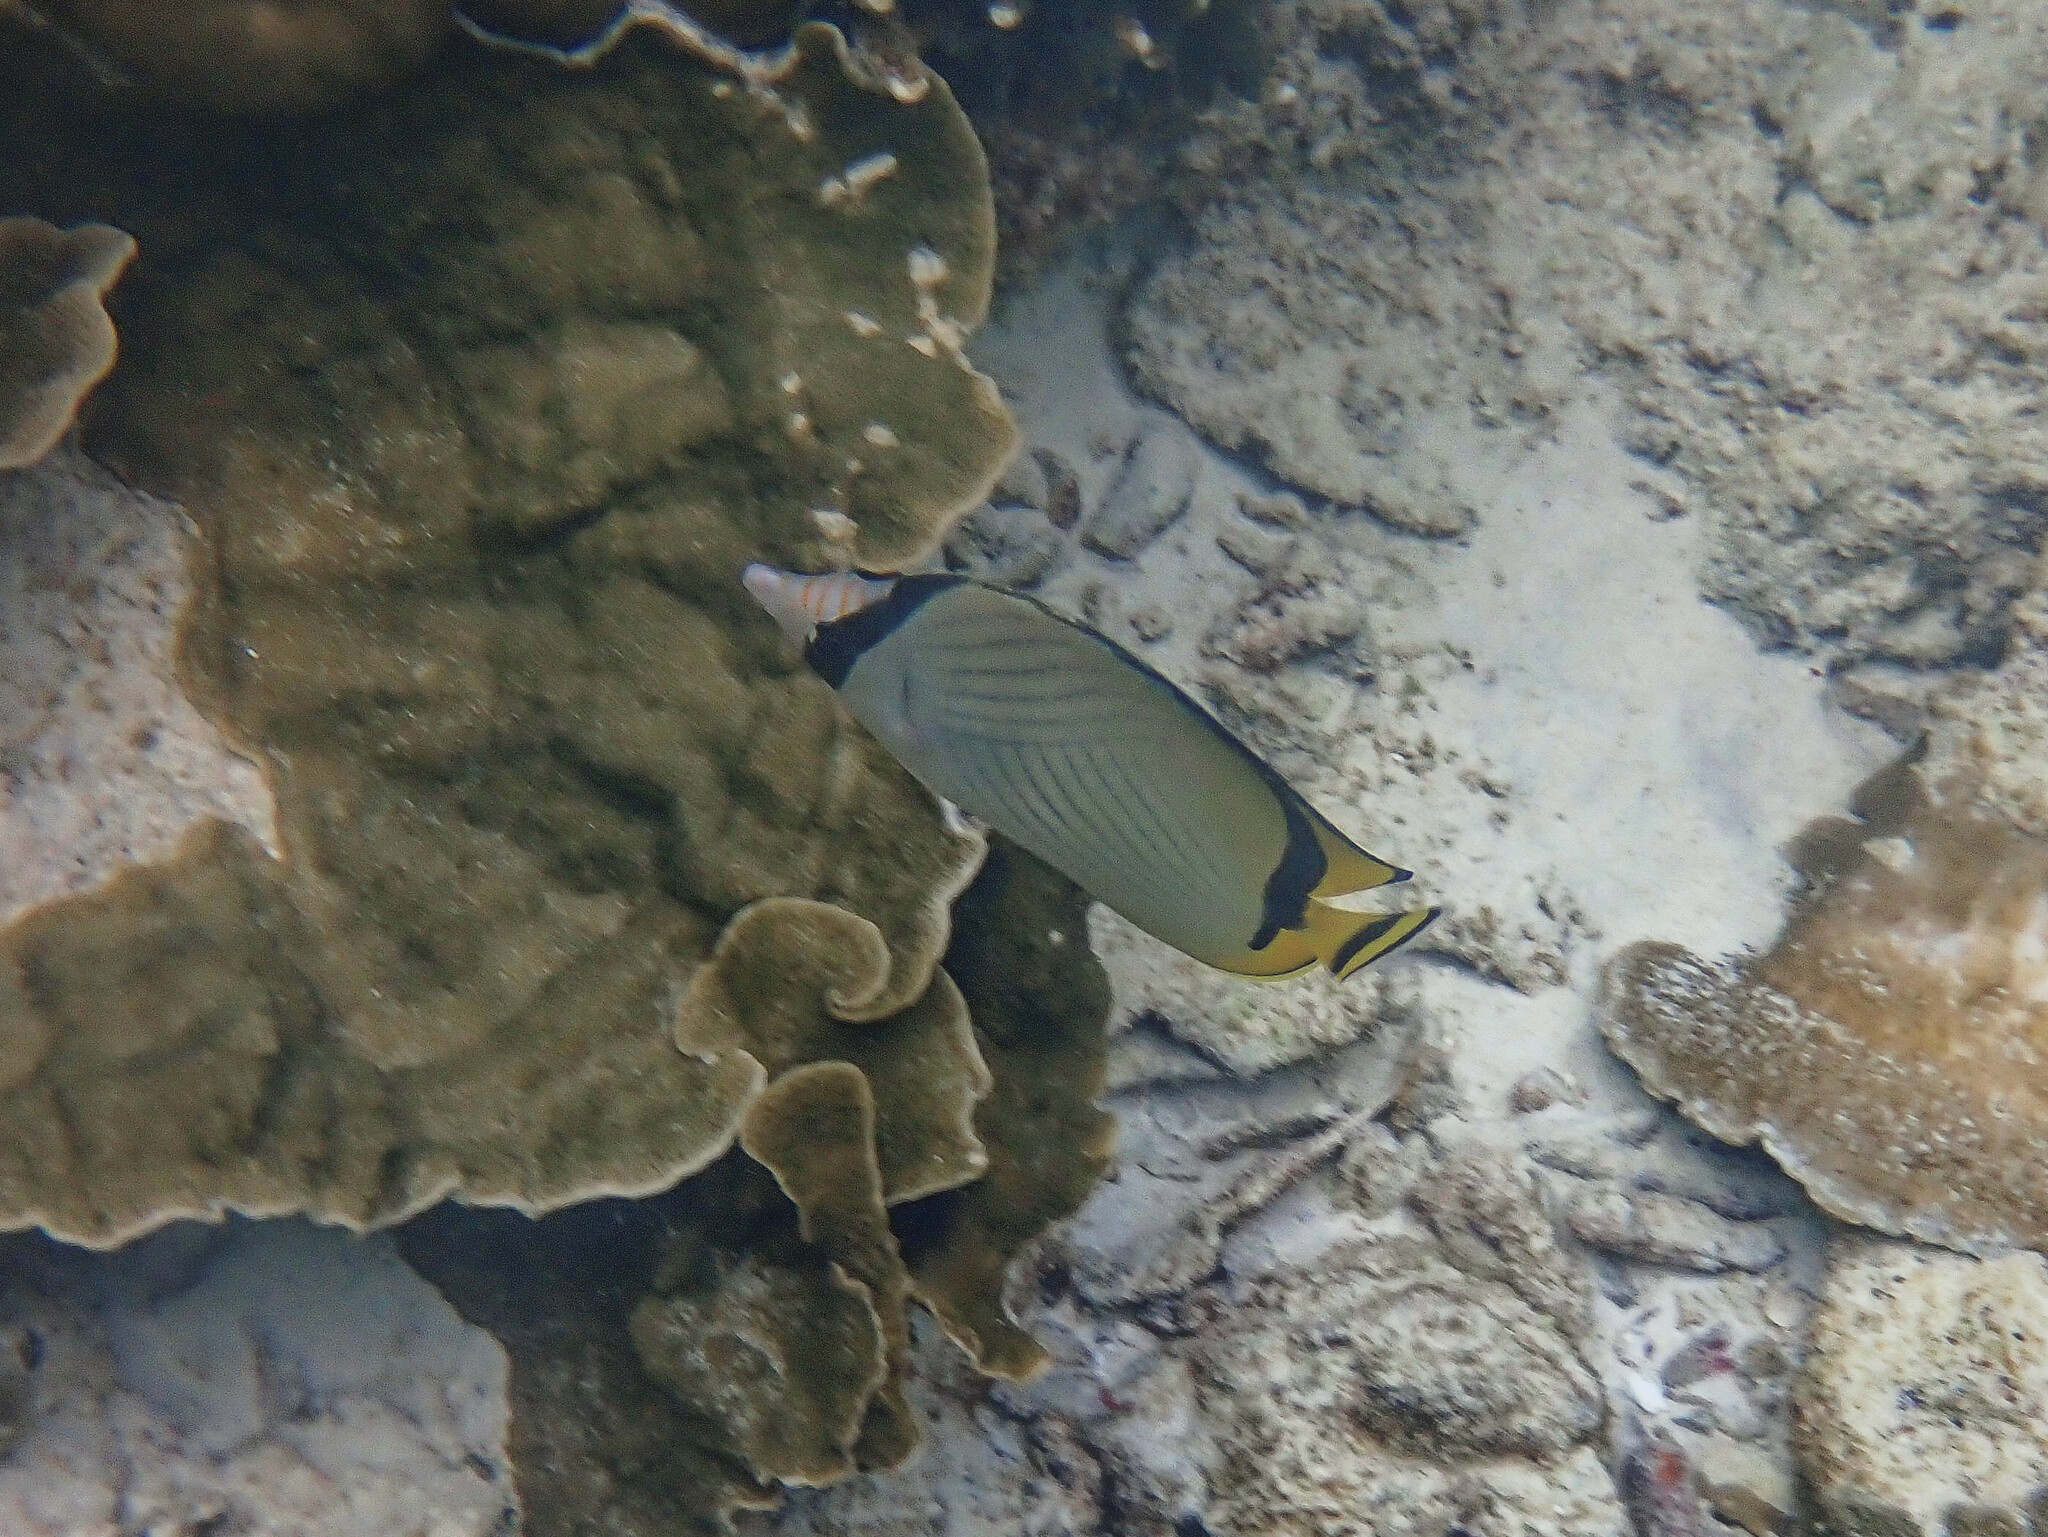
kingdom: Animalia
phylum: Chordata
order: Perciformes
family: Chaetodontidae
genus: Chaetodon
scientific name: Chaetodon vagabundus
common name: Vagabond butterflyfish
